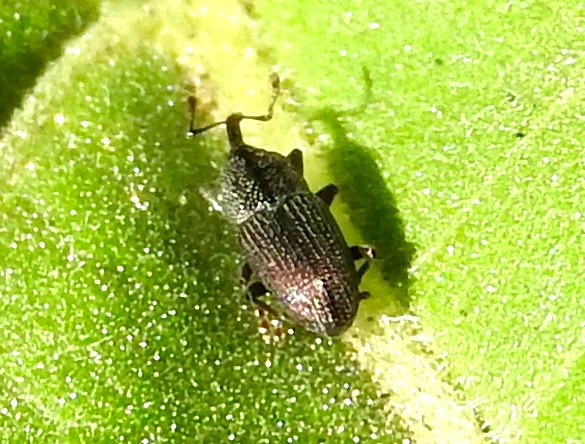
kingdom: Animalia
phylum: Arthropoda
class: Insecta
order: Coleoptera
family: Curculionidae
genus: Baridinae
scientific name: Baridinae
